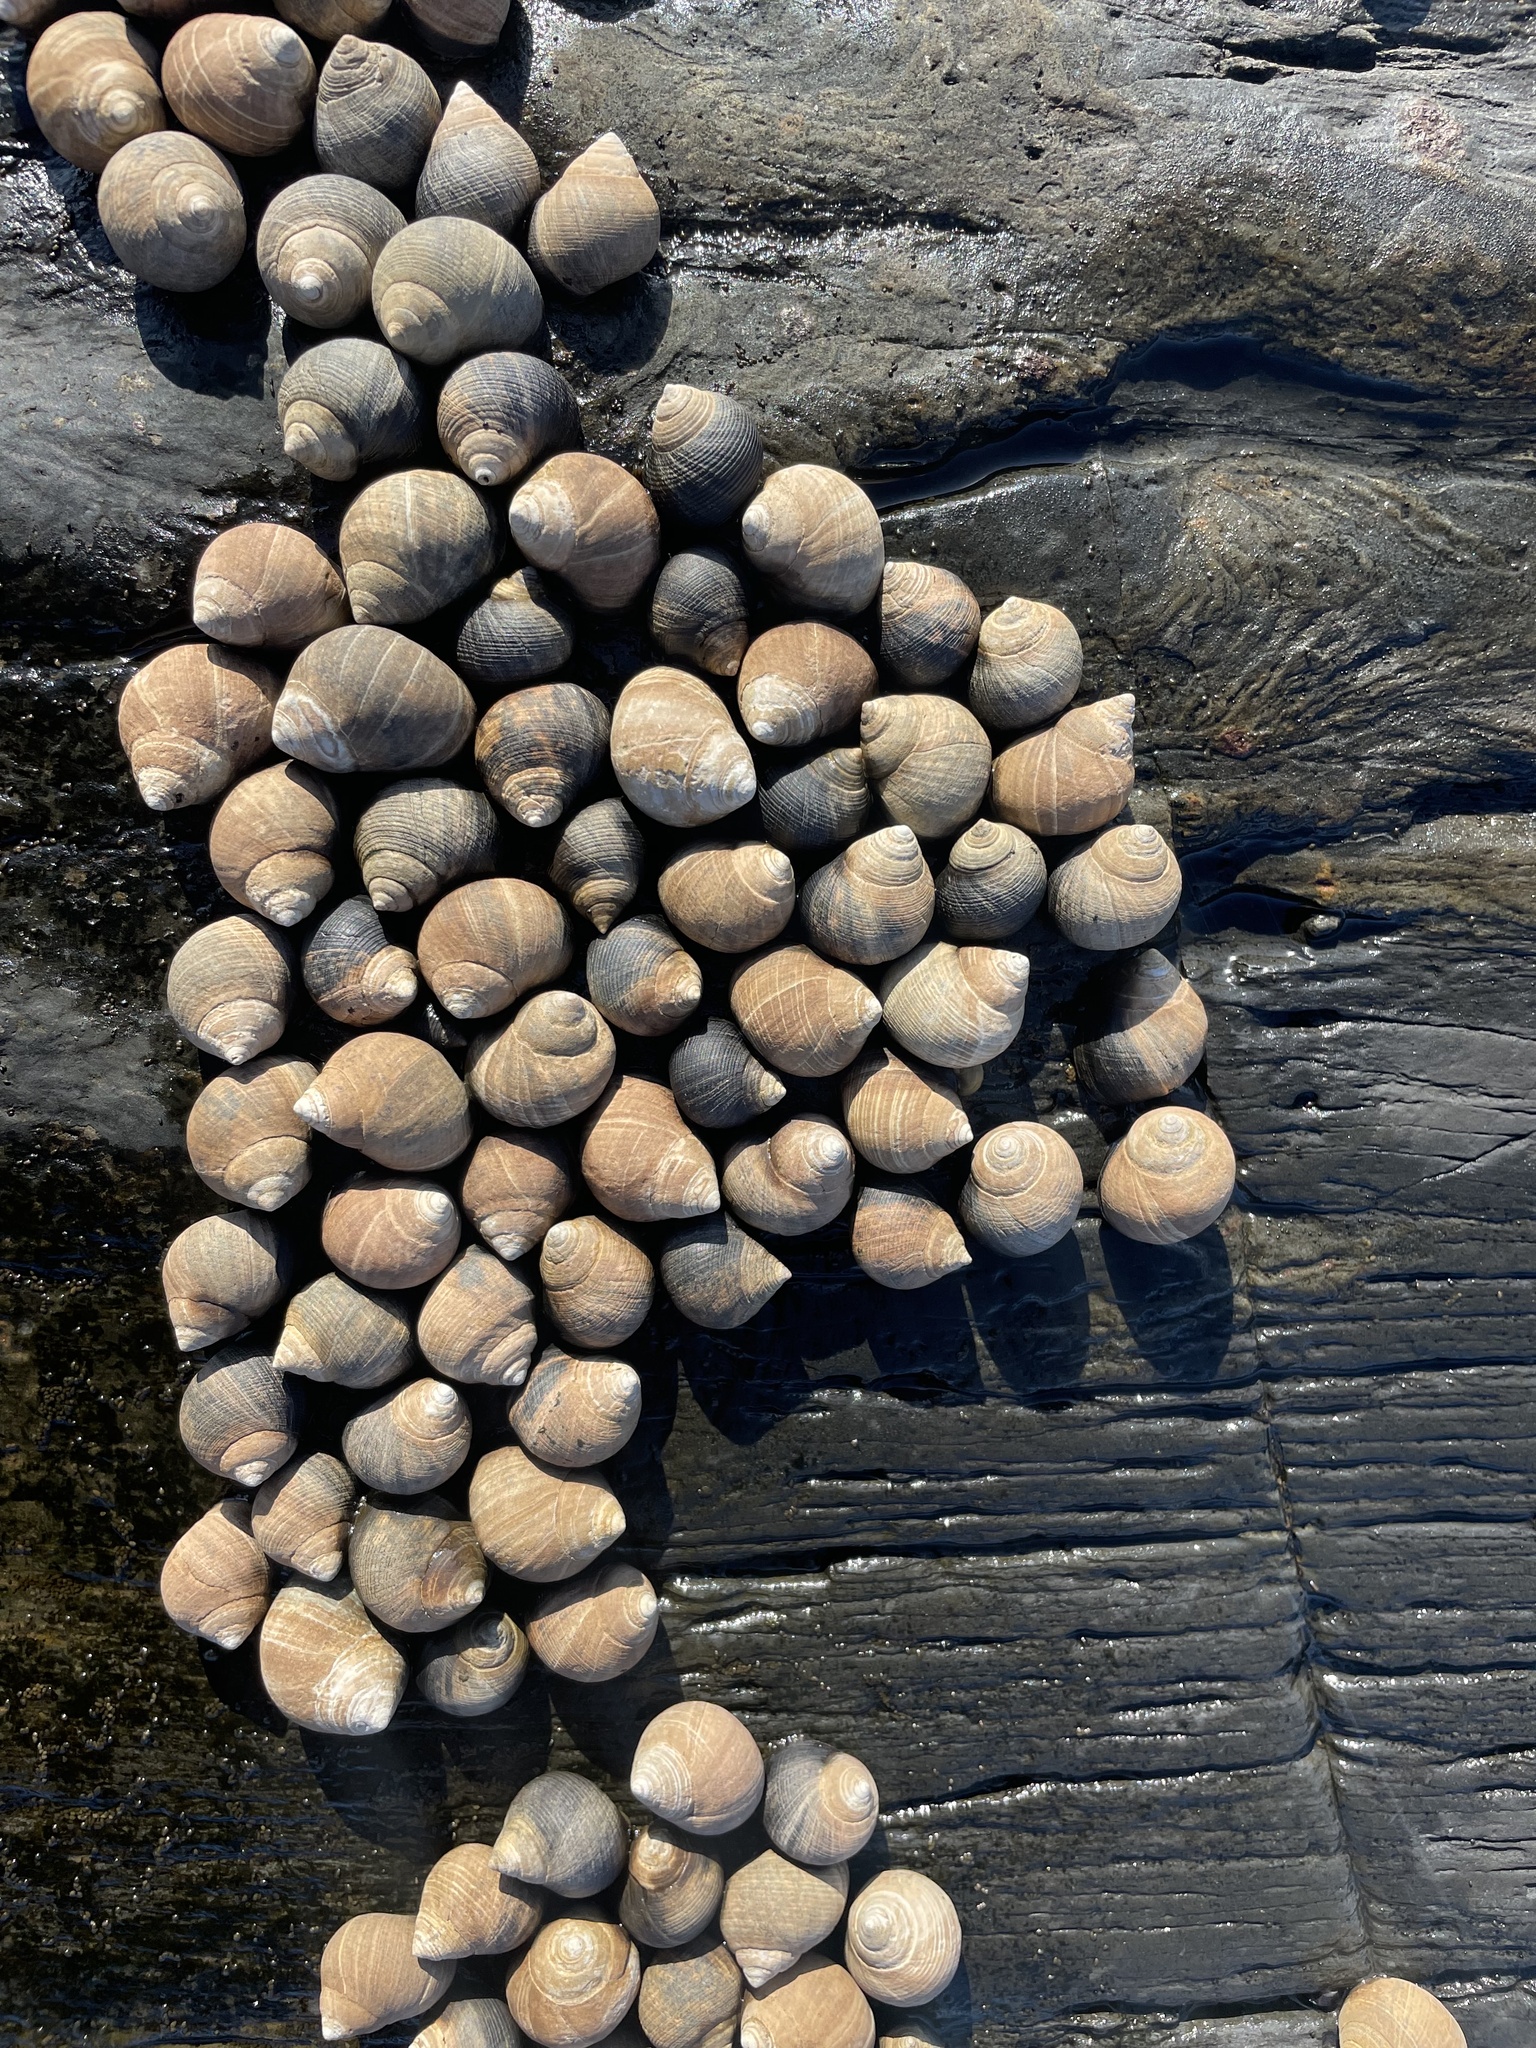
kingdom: Animalia
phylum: Mollusca
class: Gastropoda
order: Littorinimorpha
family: Littorinidae
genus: Littorina
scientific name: Littorina littorea
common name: Common periwinkle
